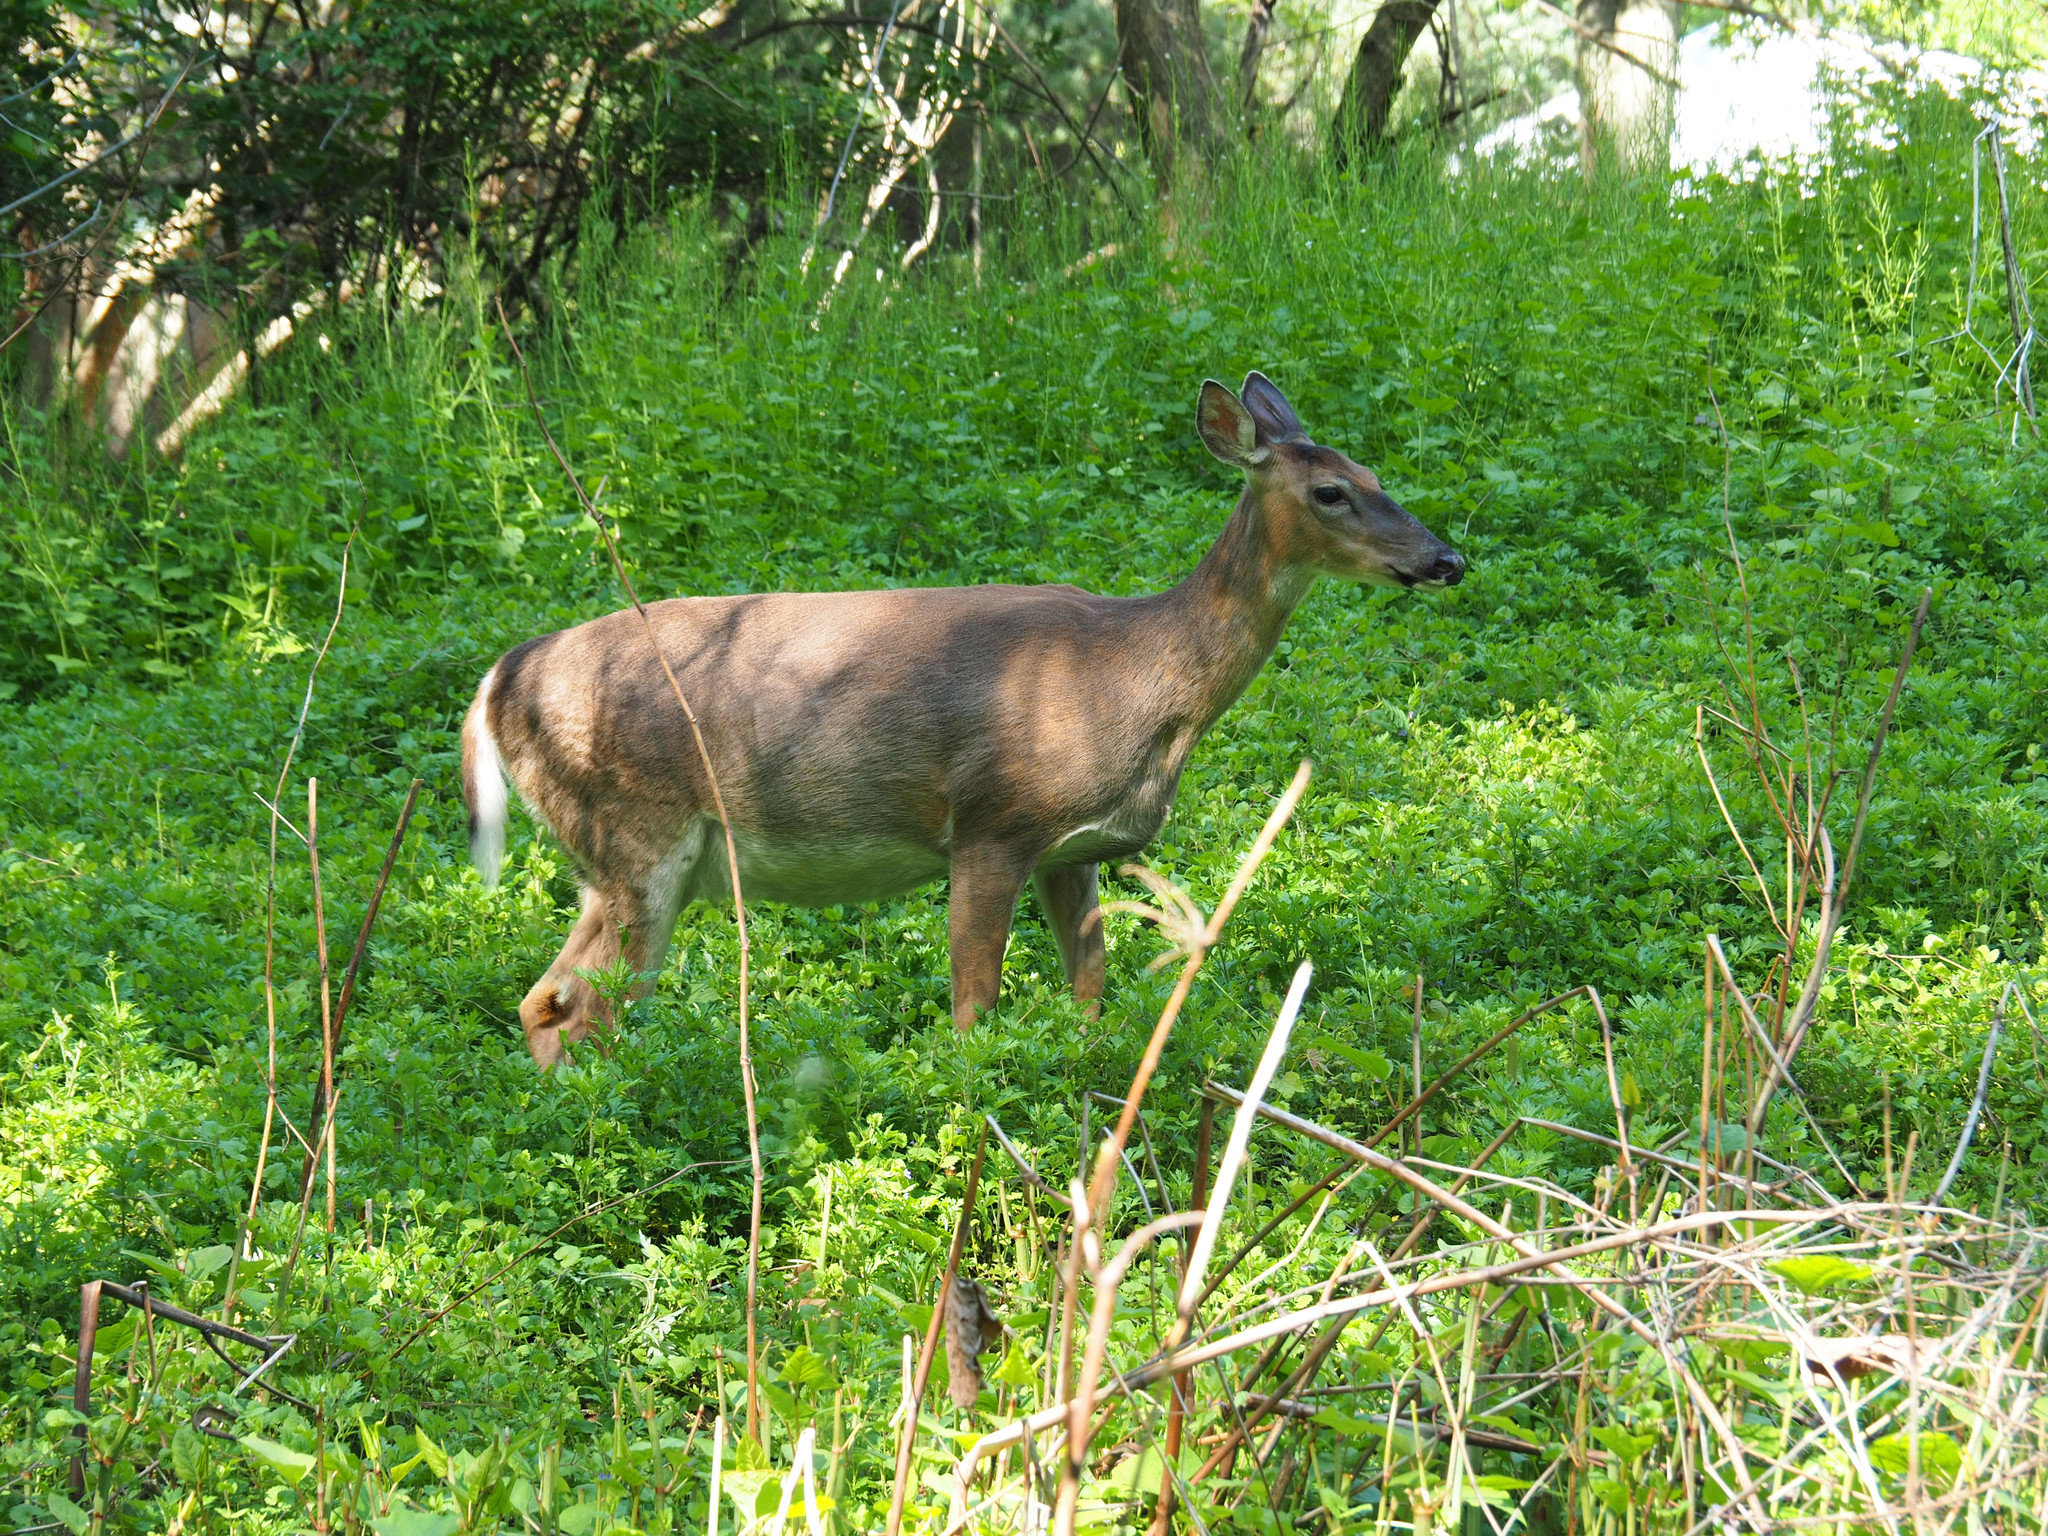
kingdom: Animalia
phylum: Chordata
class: Mammalia
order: Artiodactyla
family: Cervidae
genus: Odocoileus
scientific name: Odocoileus virginianus
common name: White-tailed deer
